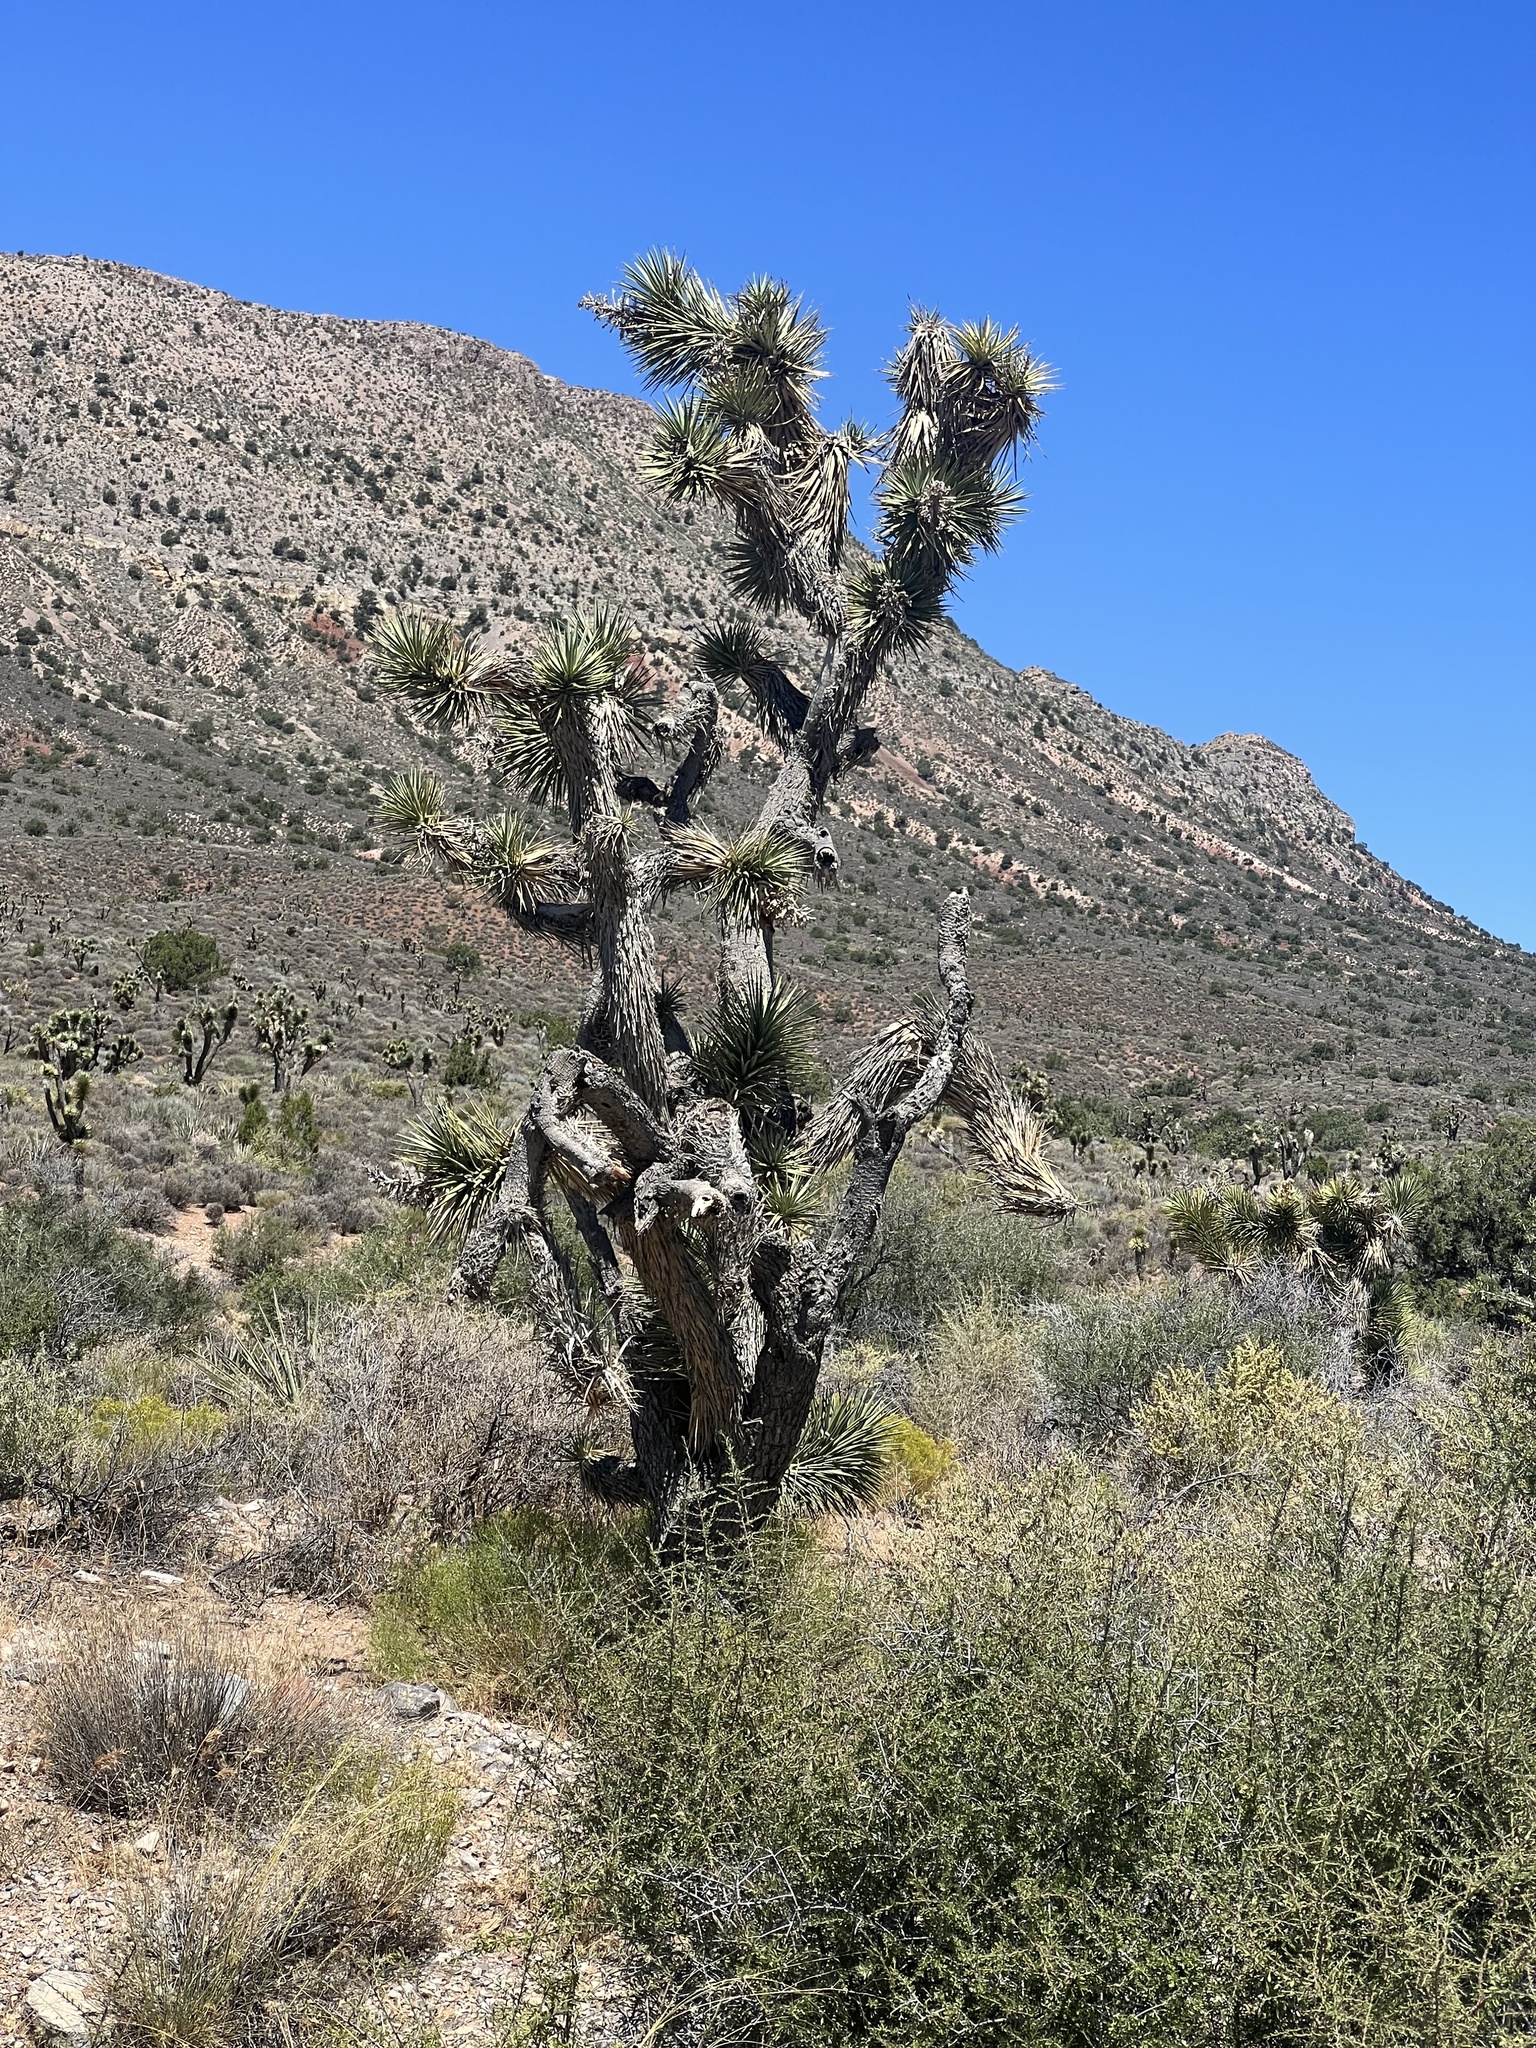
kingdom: Plantae
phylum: Tracheophyta
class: Liliopsida
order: Asparagales
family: Asparagaceae
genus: Yucca
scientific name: Yucca brevifolia
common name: Joshua tree
